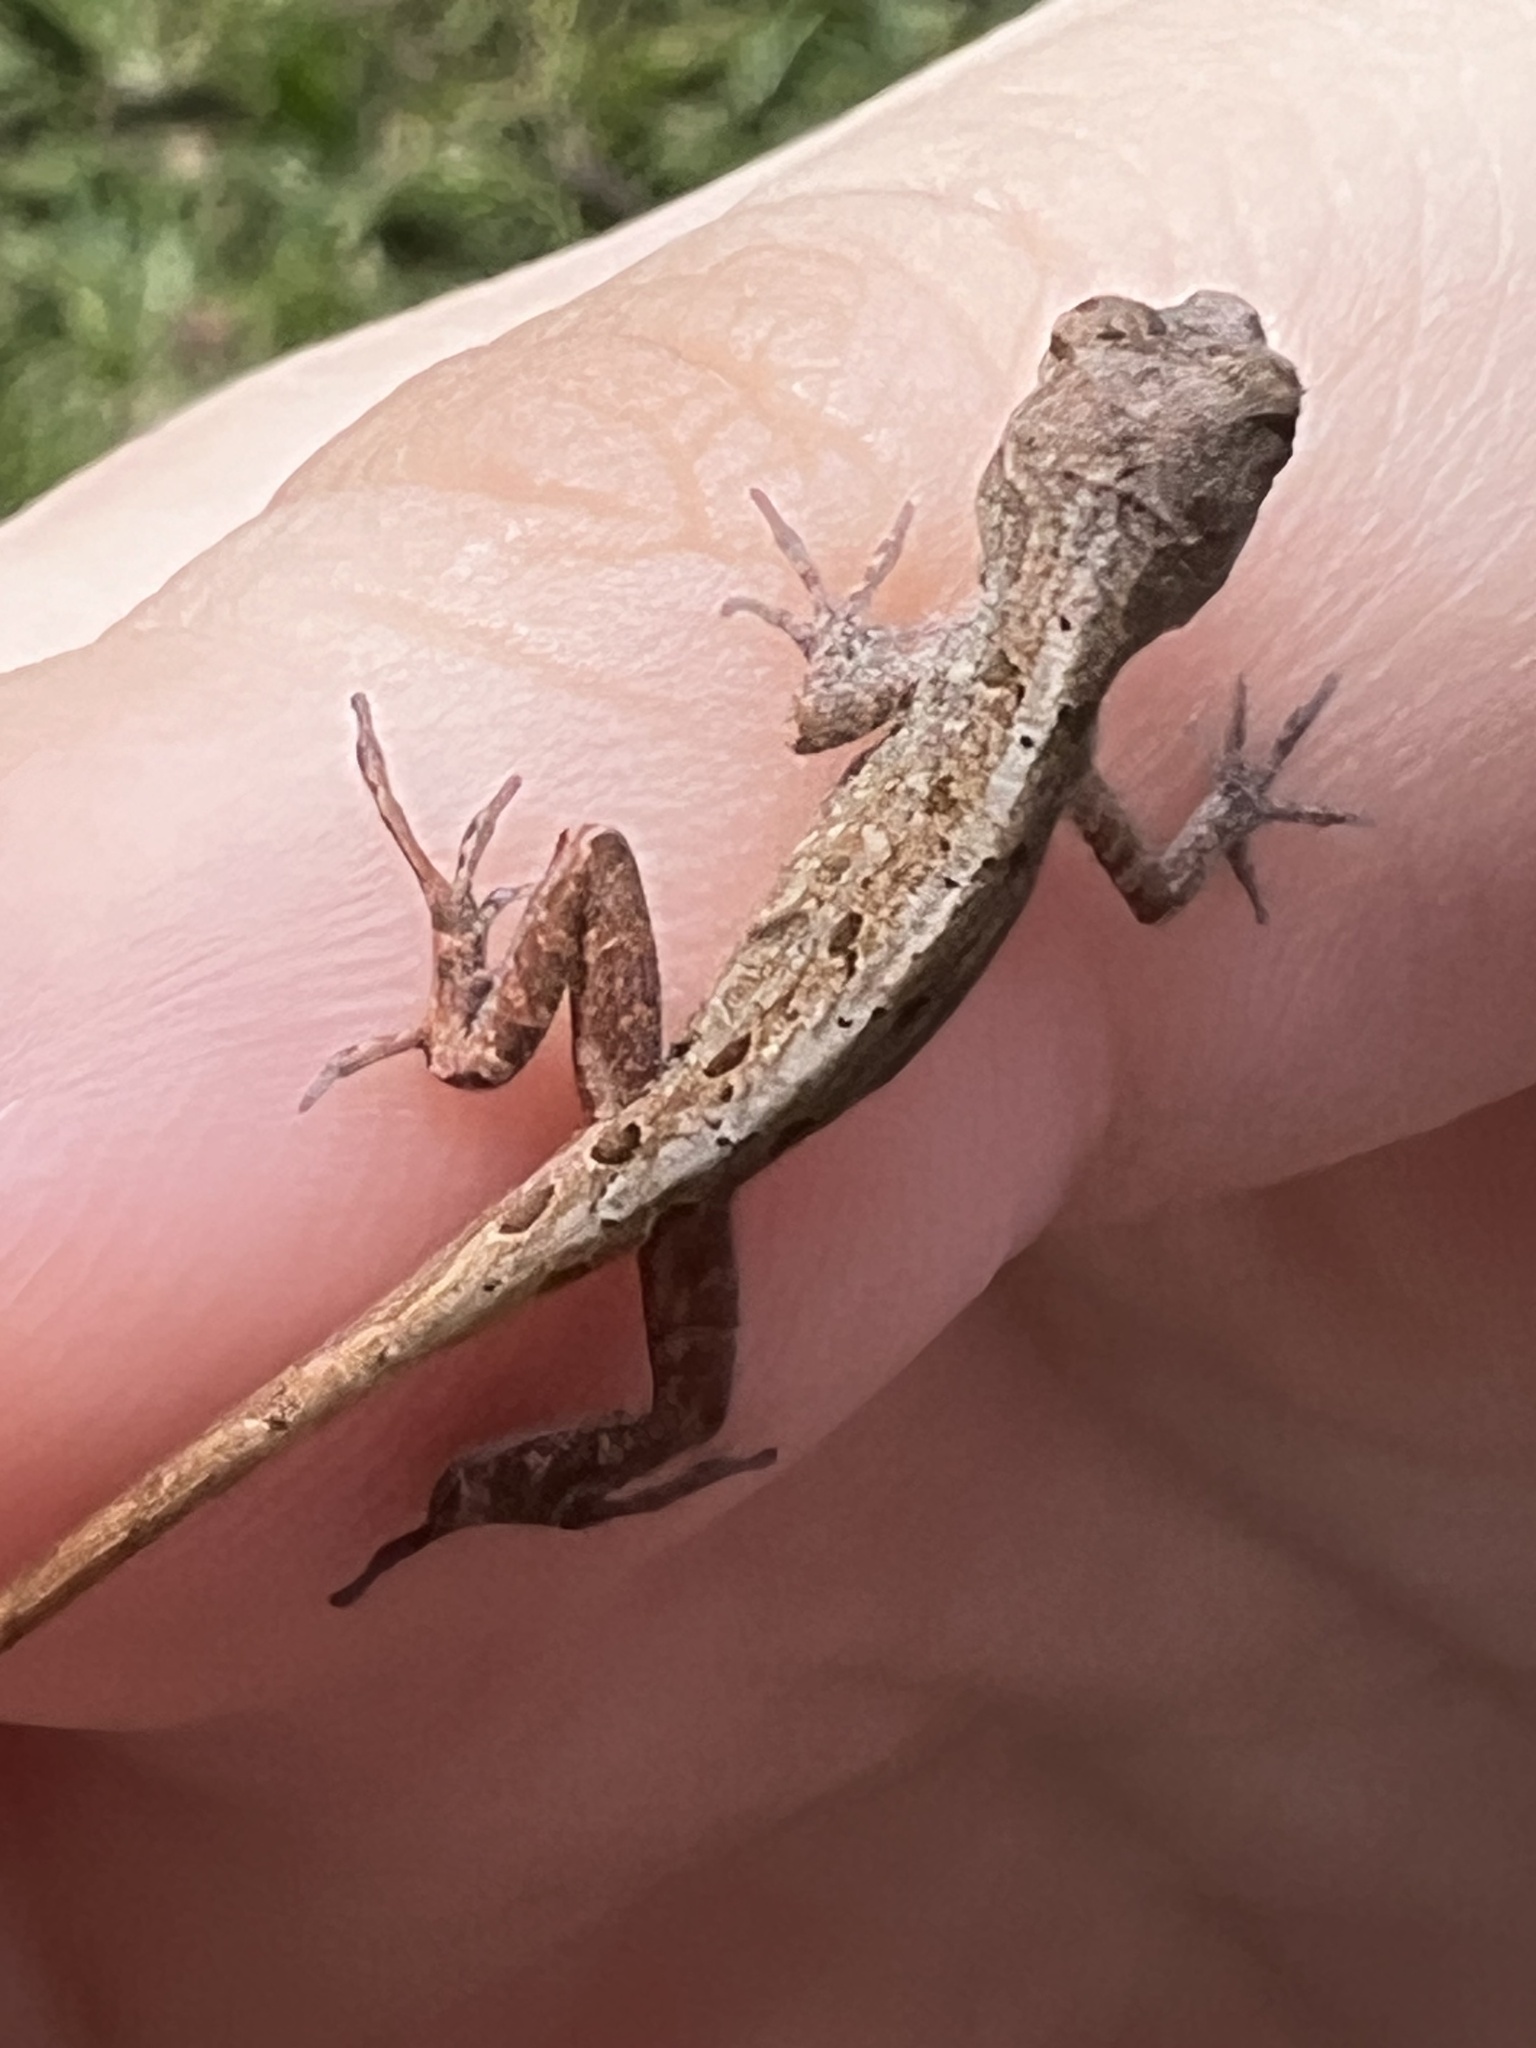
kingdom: Animalia
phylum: Chordata
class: Squamata
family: Dactyloidae
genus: Anolis
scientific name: Anolis sagrei
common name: Brown anole
